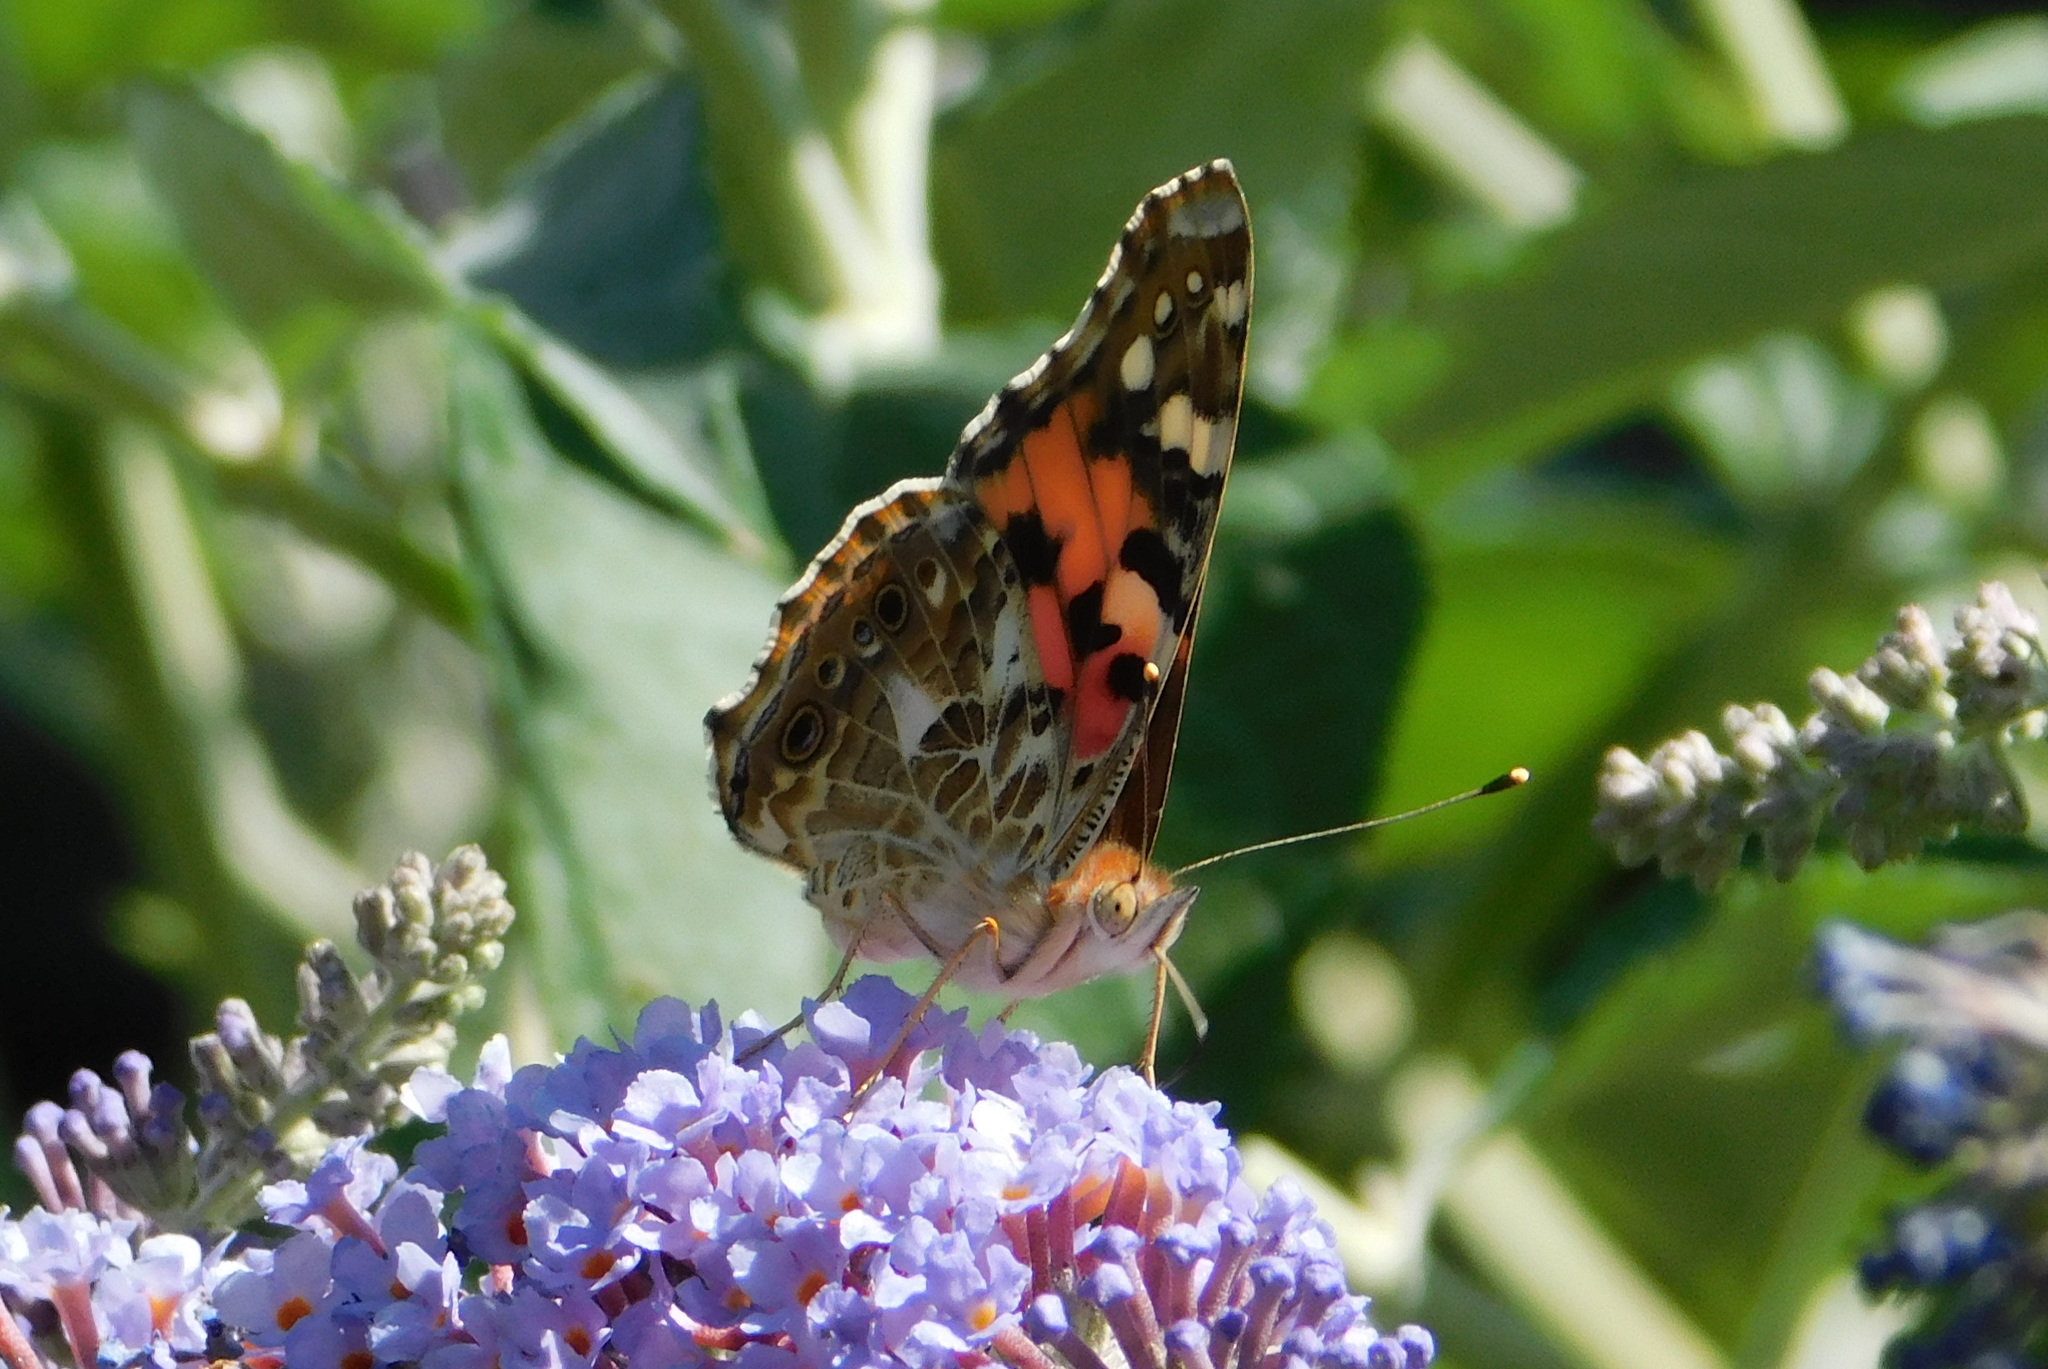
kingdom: Animalia
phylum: Arthropoda
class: Insecta
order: Lepidoptera
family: Nymphalidae
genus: Vanessa
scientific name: Vanessa cardui
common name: Painted lady
